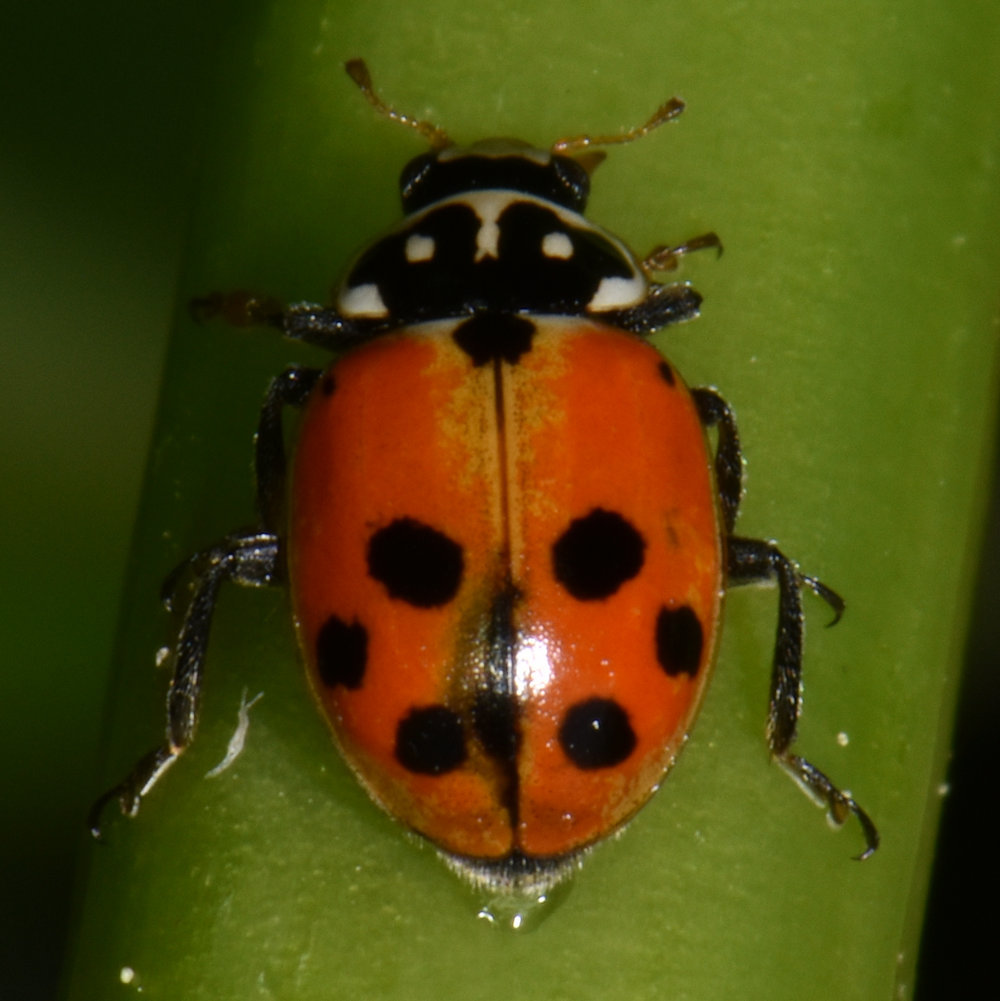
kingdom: Animalia
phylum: Arthropoda
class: Insecta
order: Coleoptera
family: Coccinellidae
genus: Hippodamia
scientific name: Hippodamia variegata
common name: Ladybird beetle
